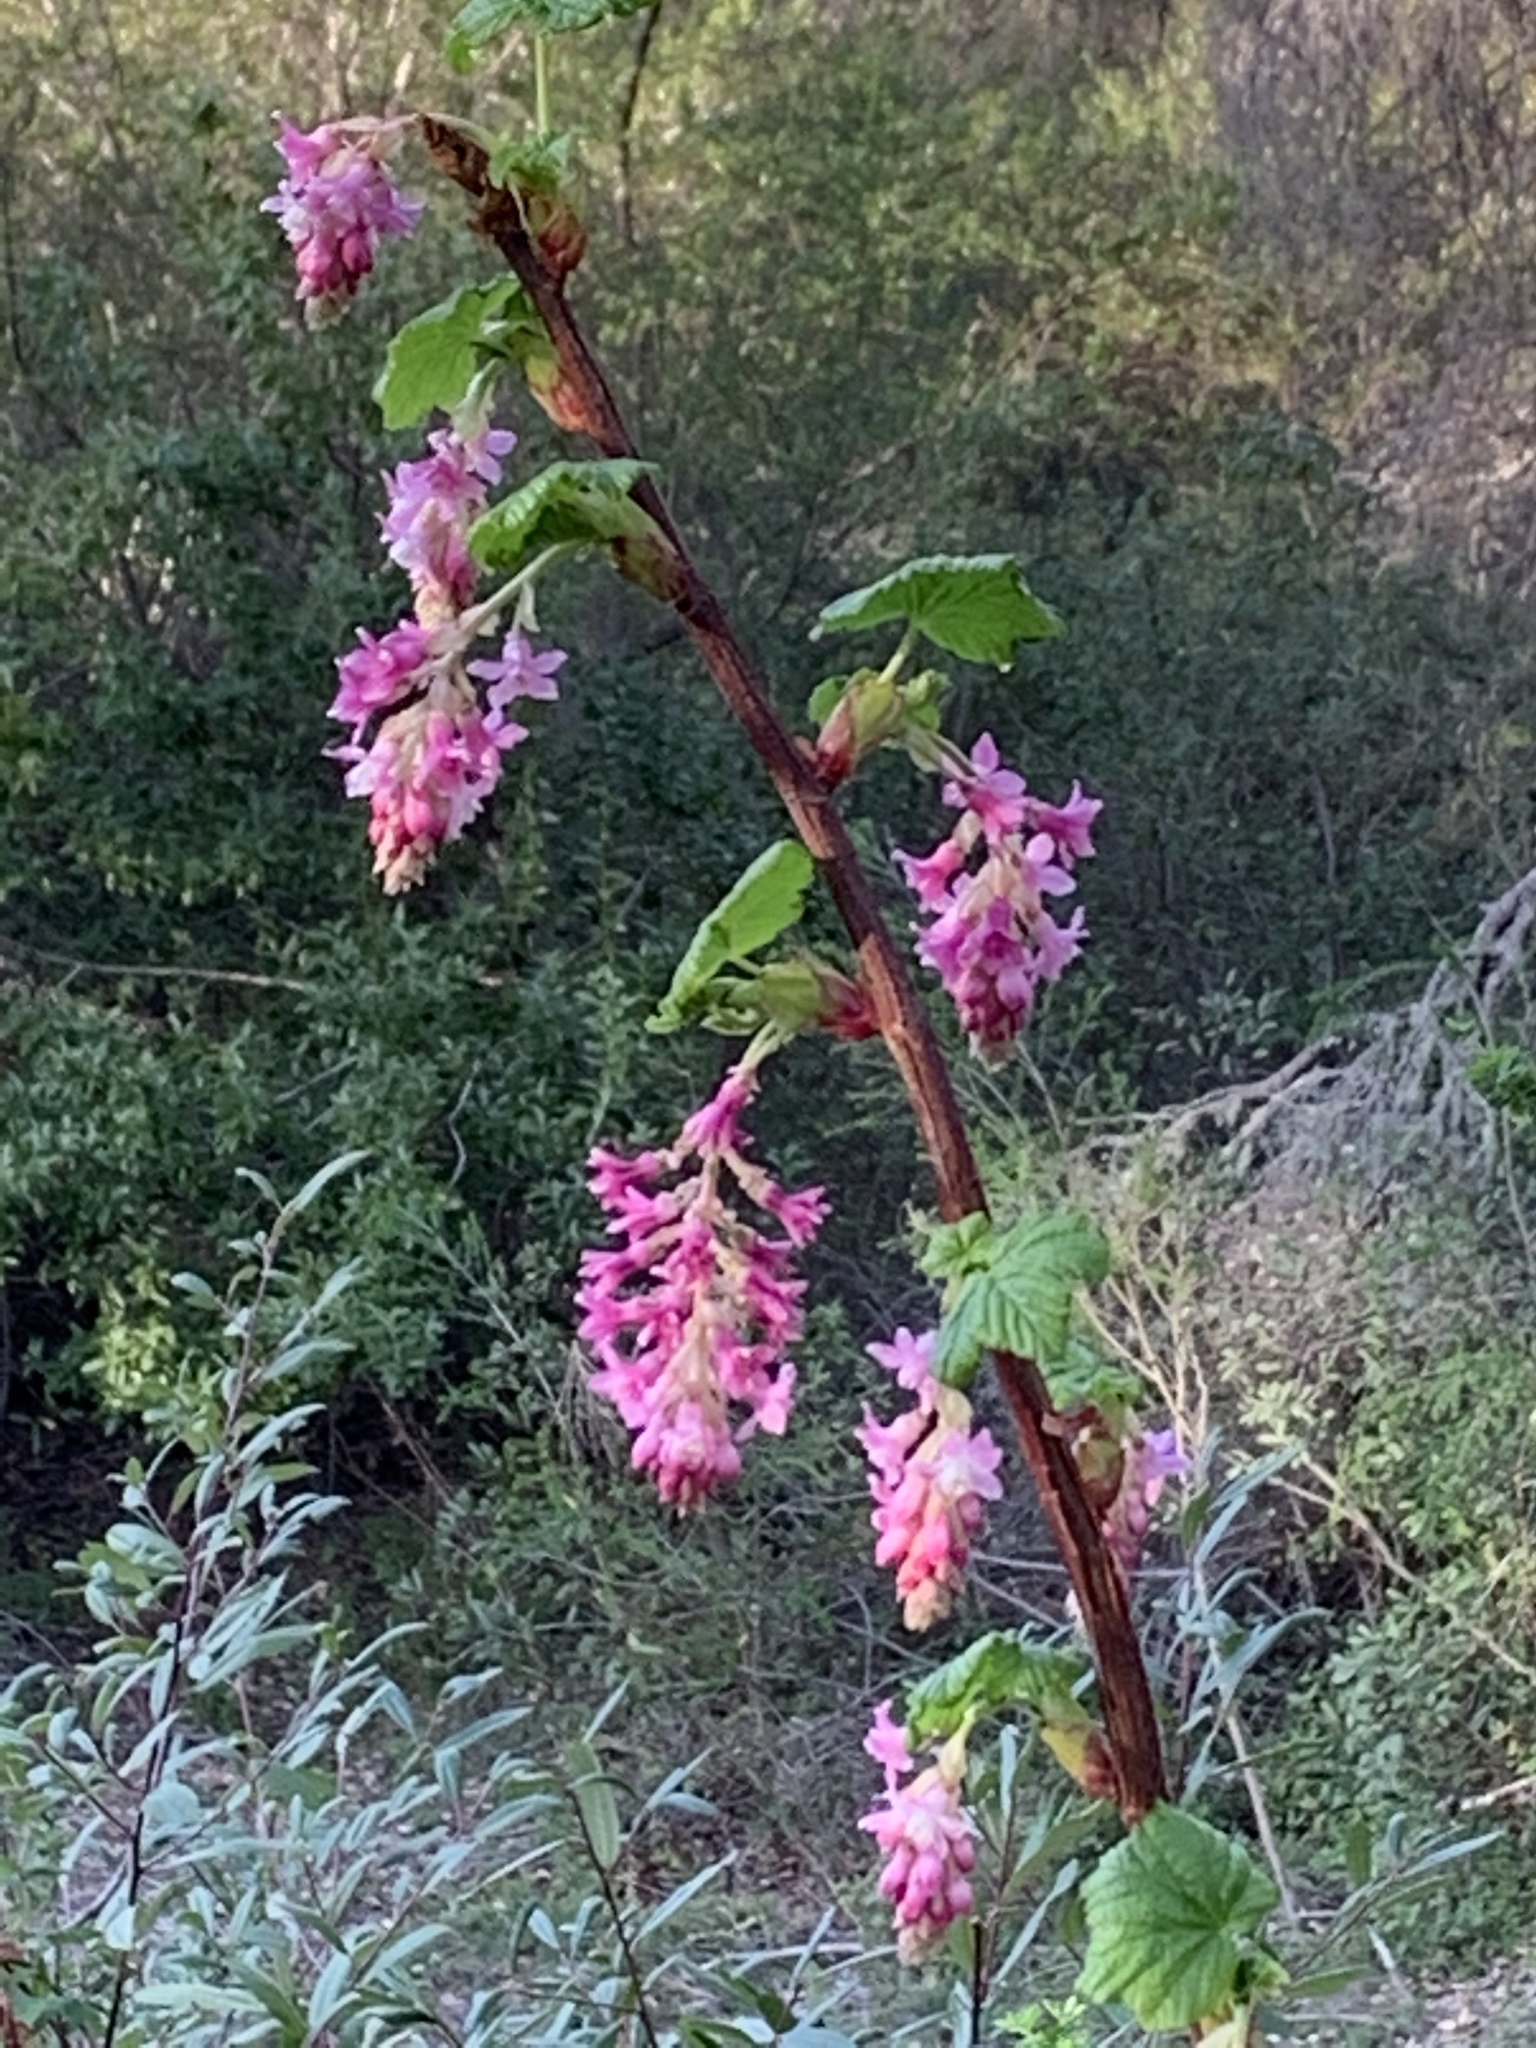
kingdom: Plantae
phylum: Tracheophyta
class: Magnoliopsida
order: Saxifragales
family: Grossulariaceae
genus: Ribes
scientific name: Ribes sanguineum
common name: Flowering currant
